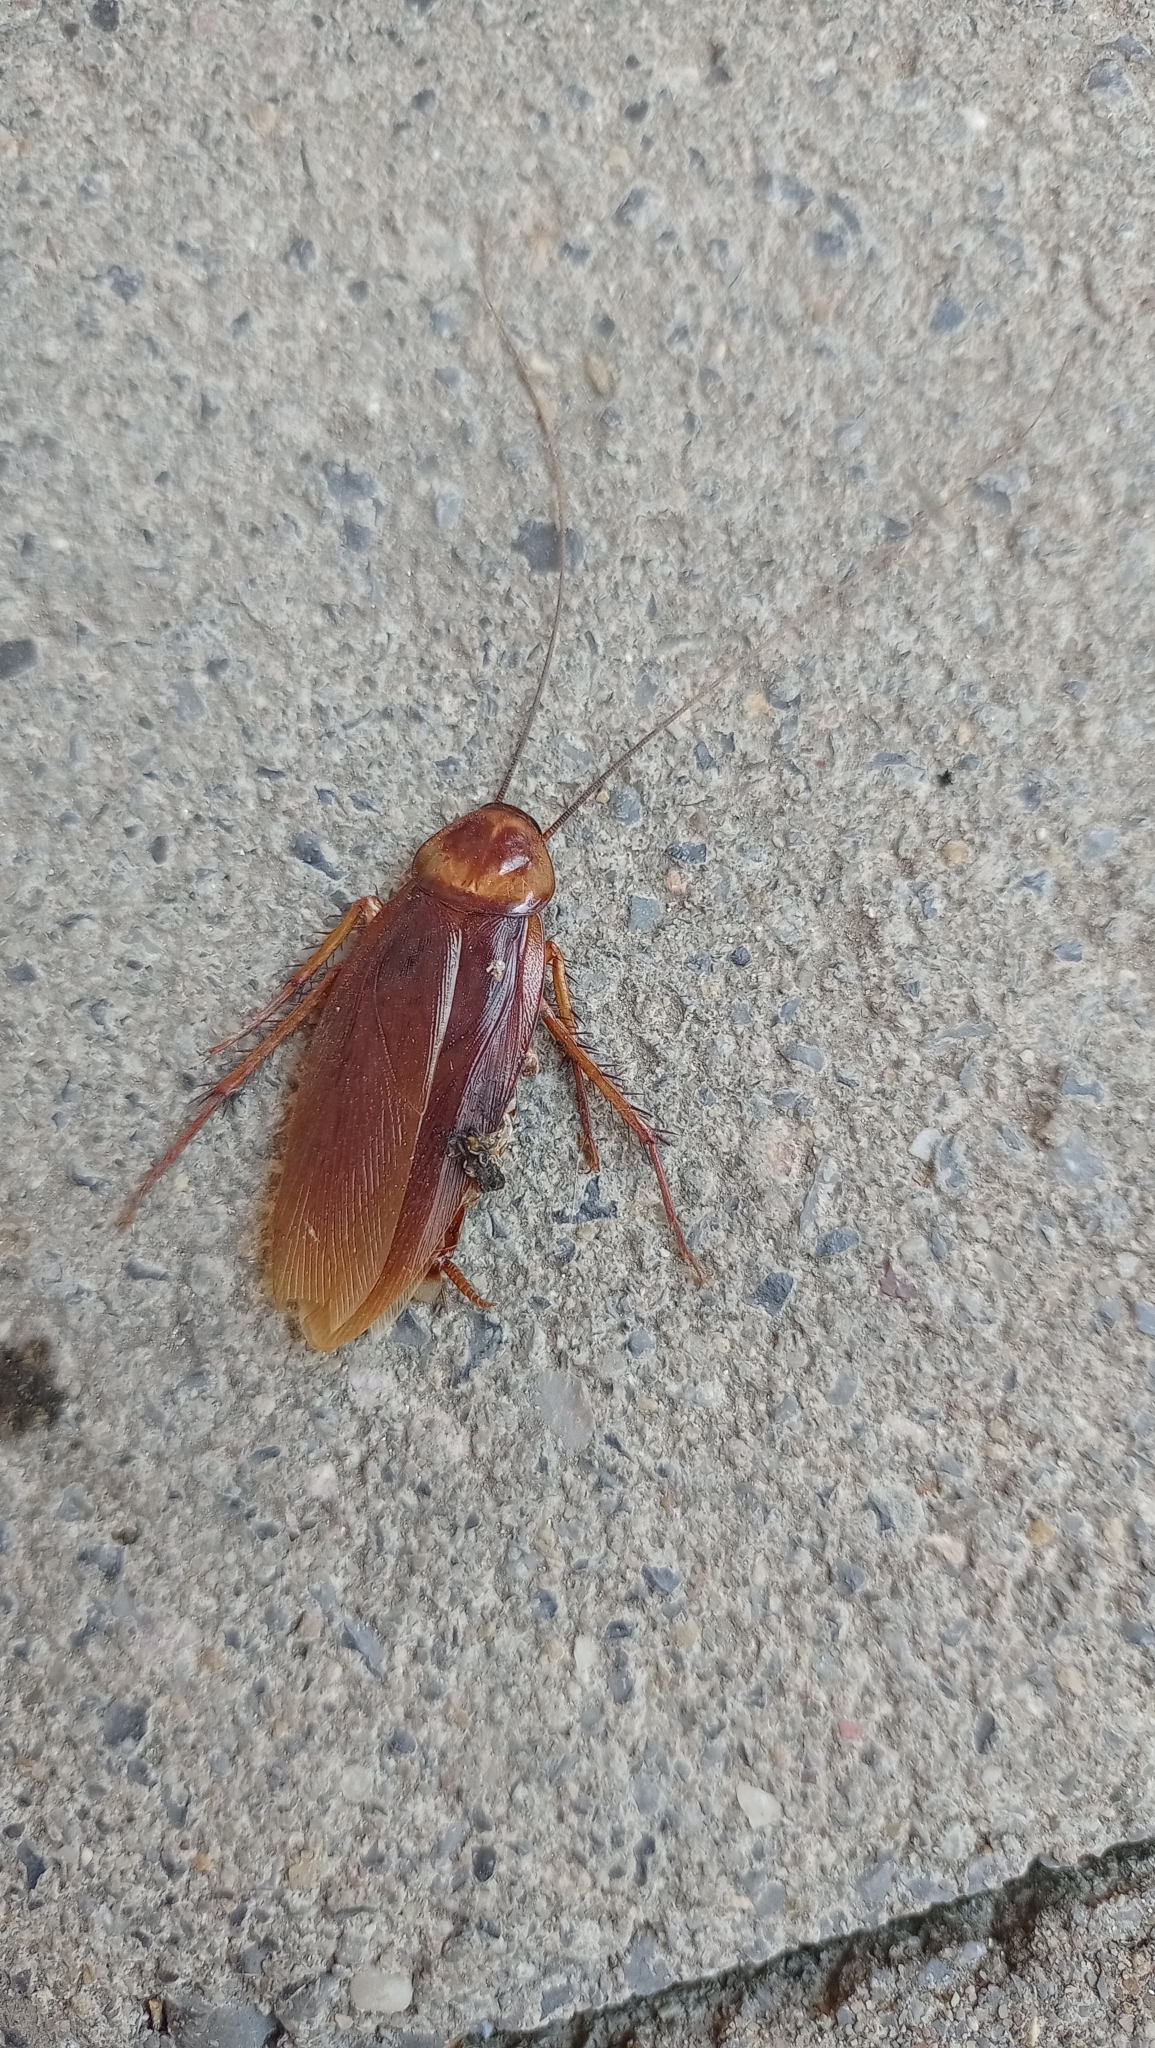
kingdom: Animalia
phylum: Arthropoda
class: Insecta
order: Blattodea
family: Blattidae
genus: Periplaneta
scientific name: Periplaneta americana
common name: American cockroach
